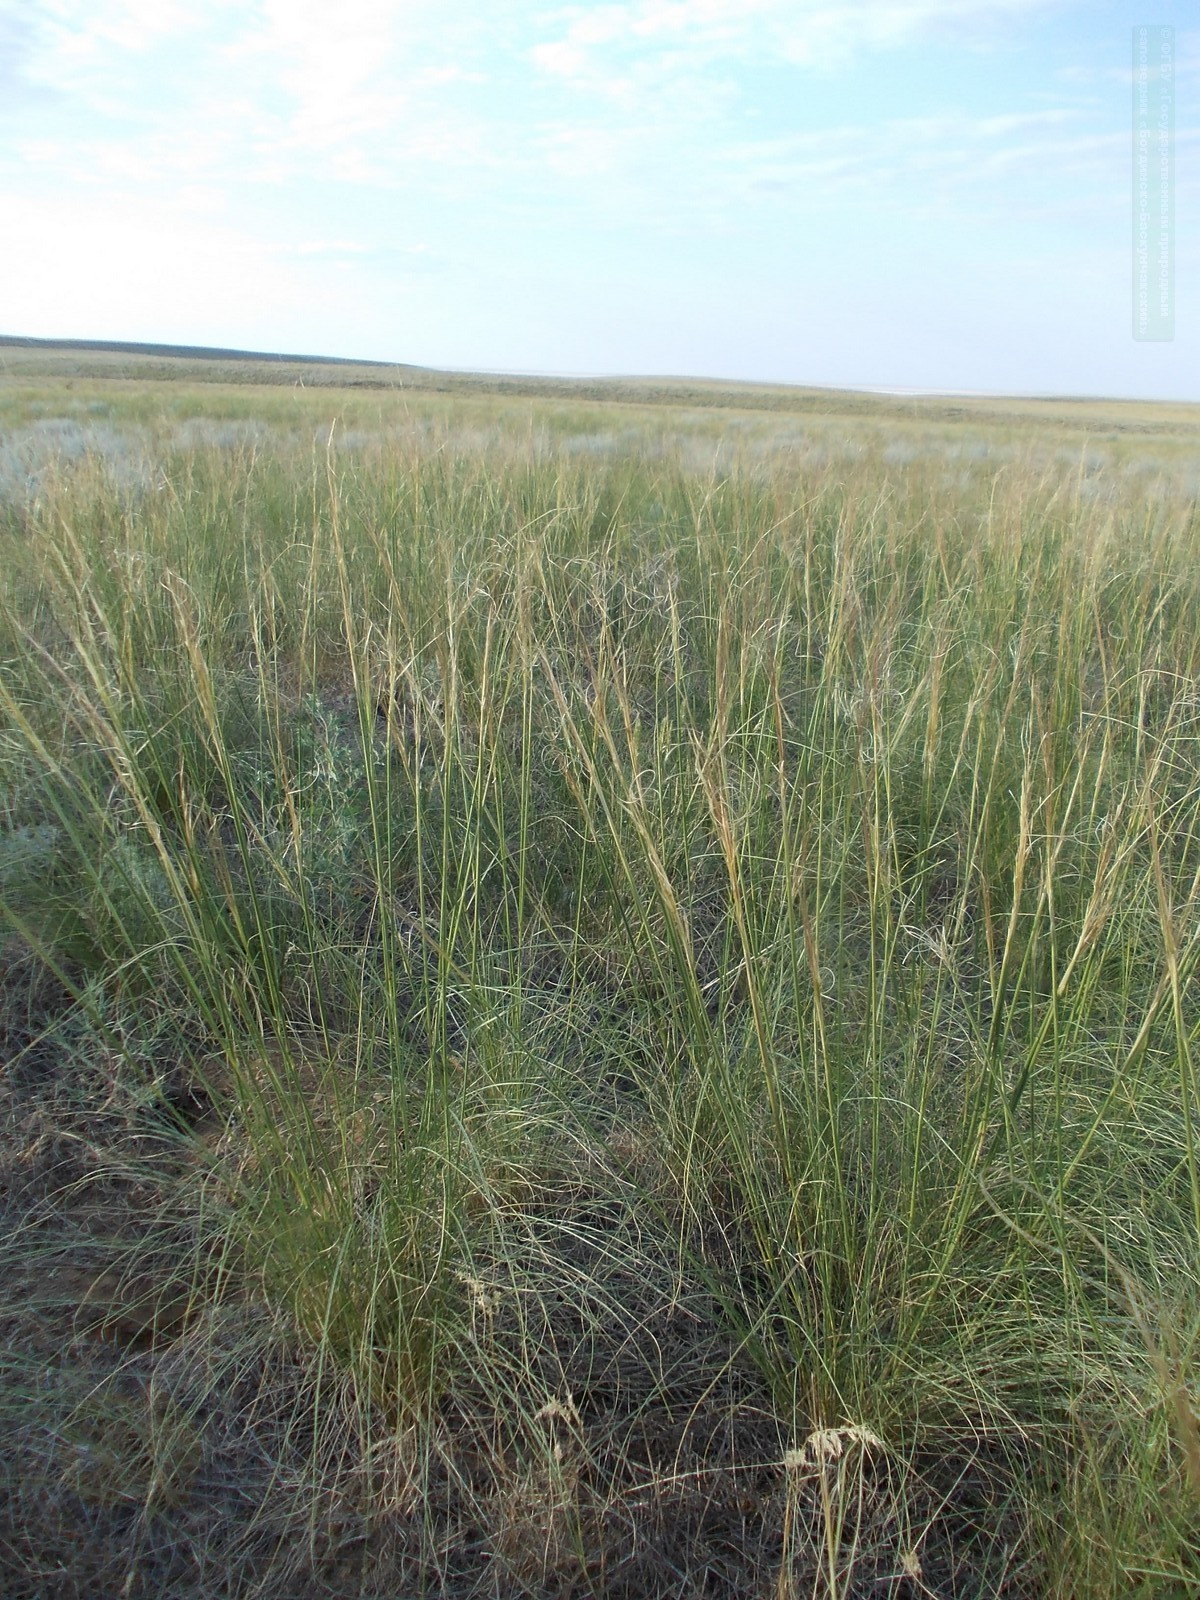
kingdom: Plantae
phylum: Tracheophyta
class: Liliopsida
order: Poales
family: Poaceae
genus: Stipa
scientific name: Stipa sareptana
